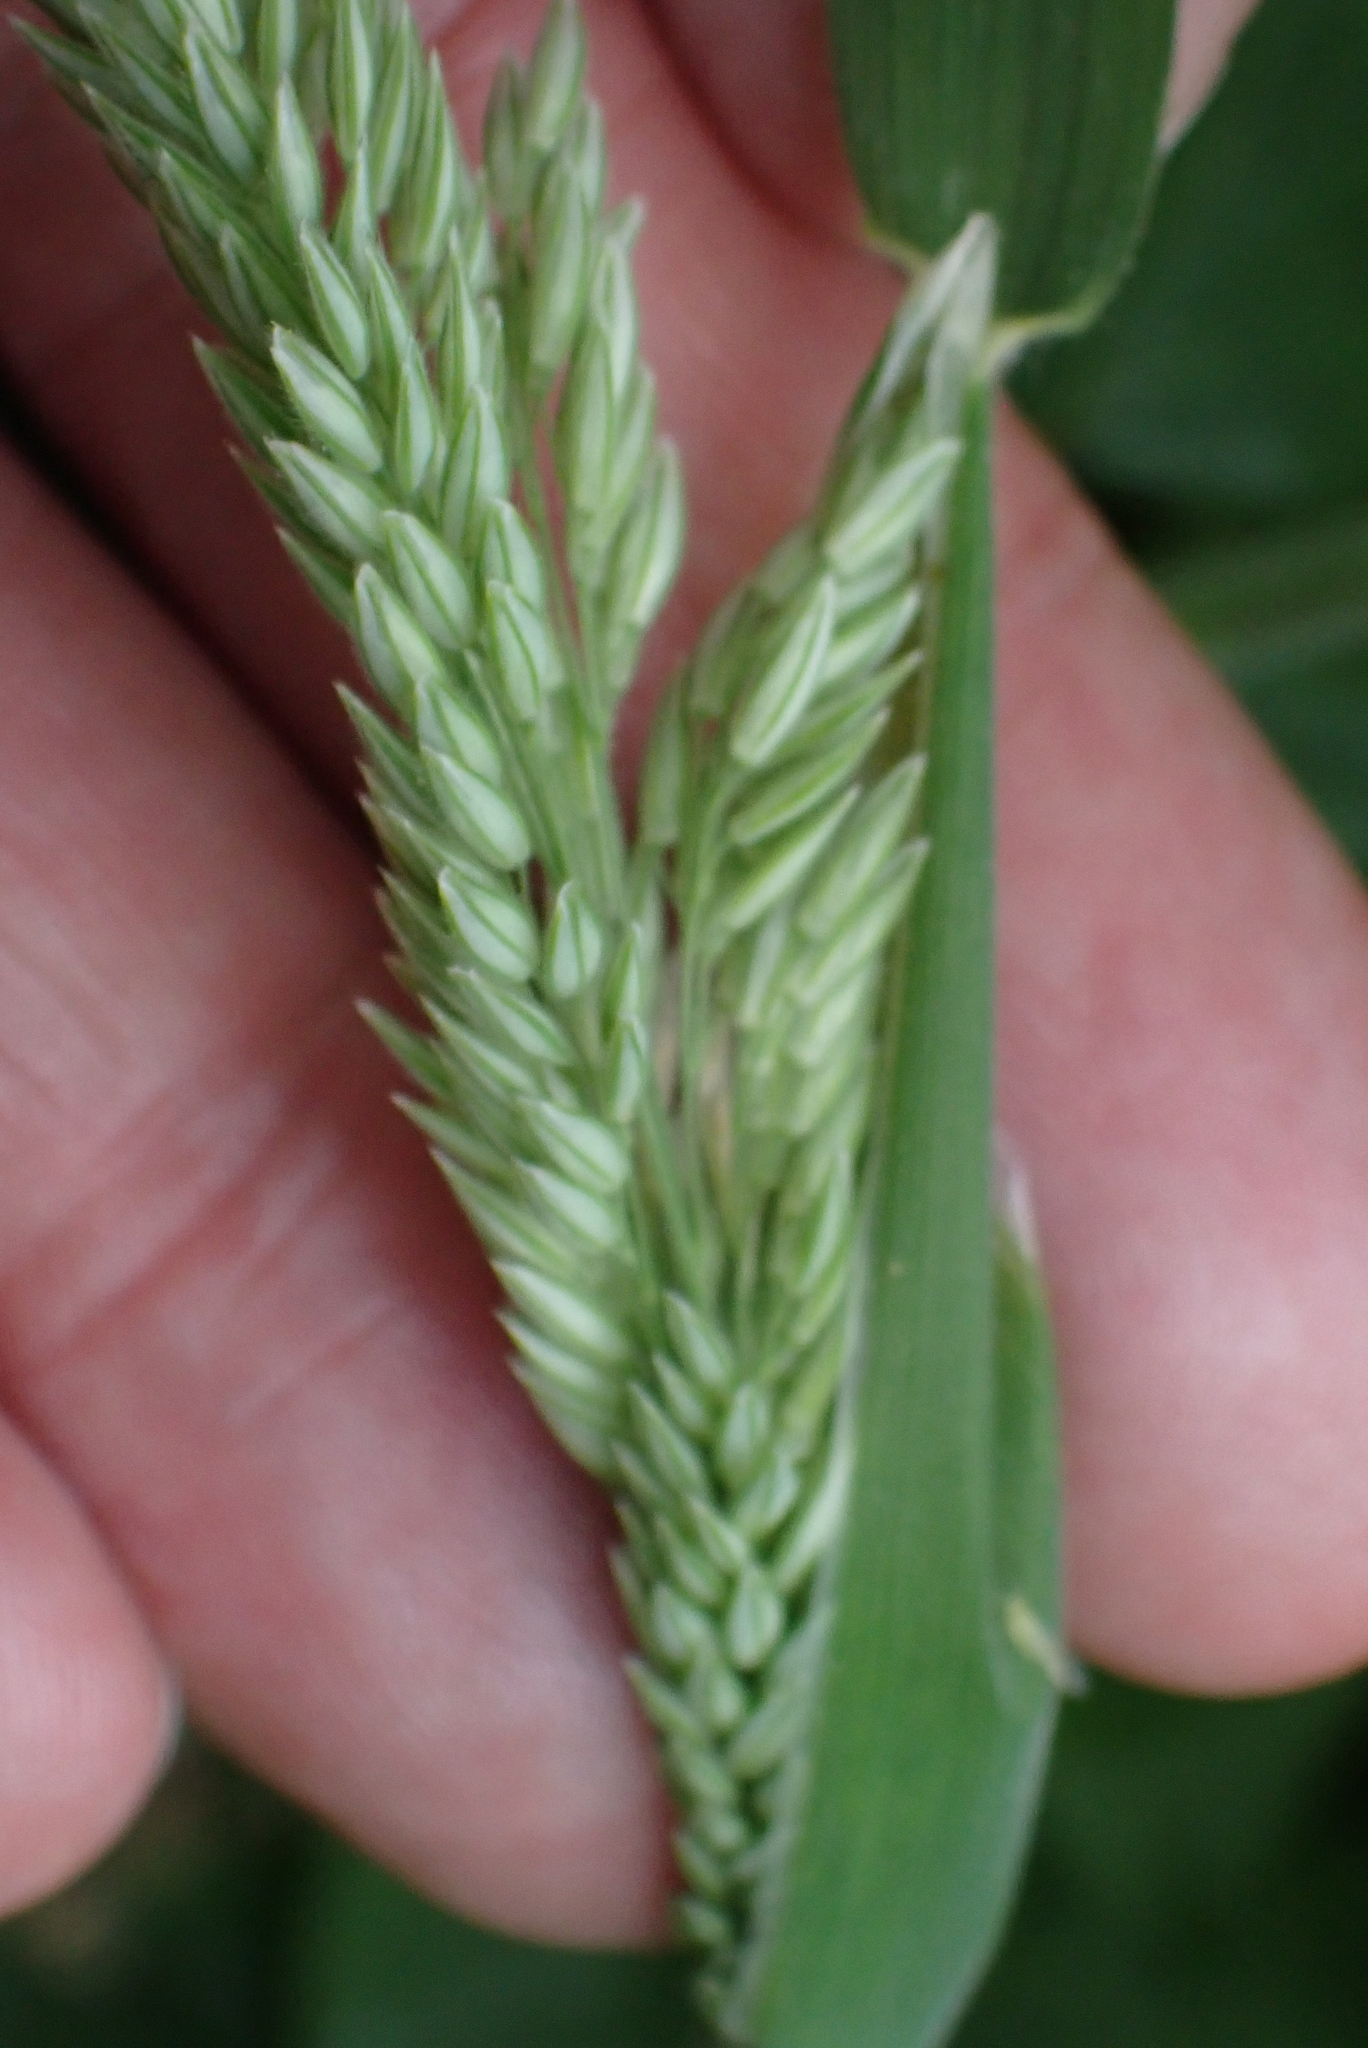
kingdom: Plantae
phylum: Tracheophyta
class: Liliopsida
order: Poales
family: Poaceae
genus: Holcus
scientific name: Holcus lanatus
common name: Yorkshire-fog
